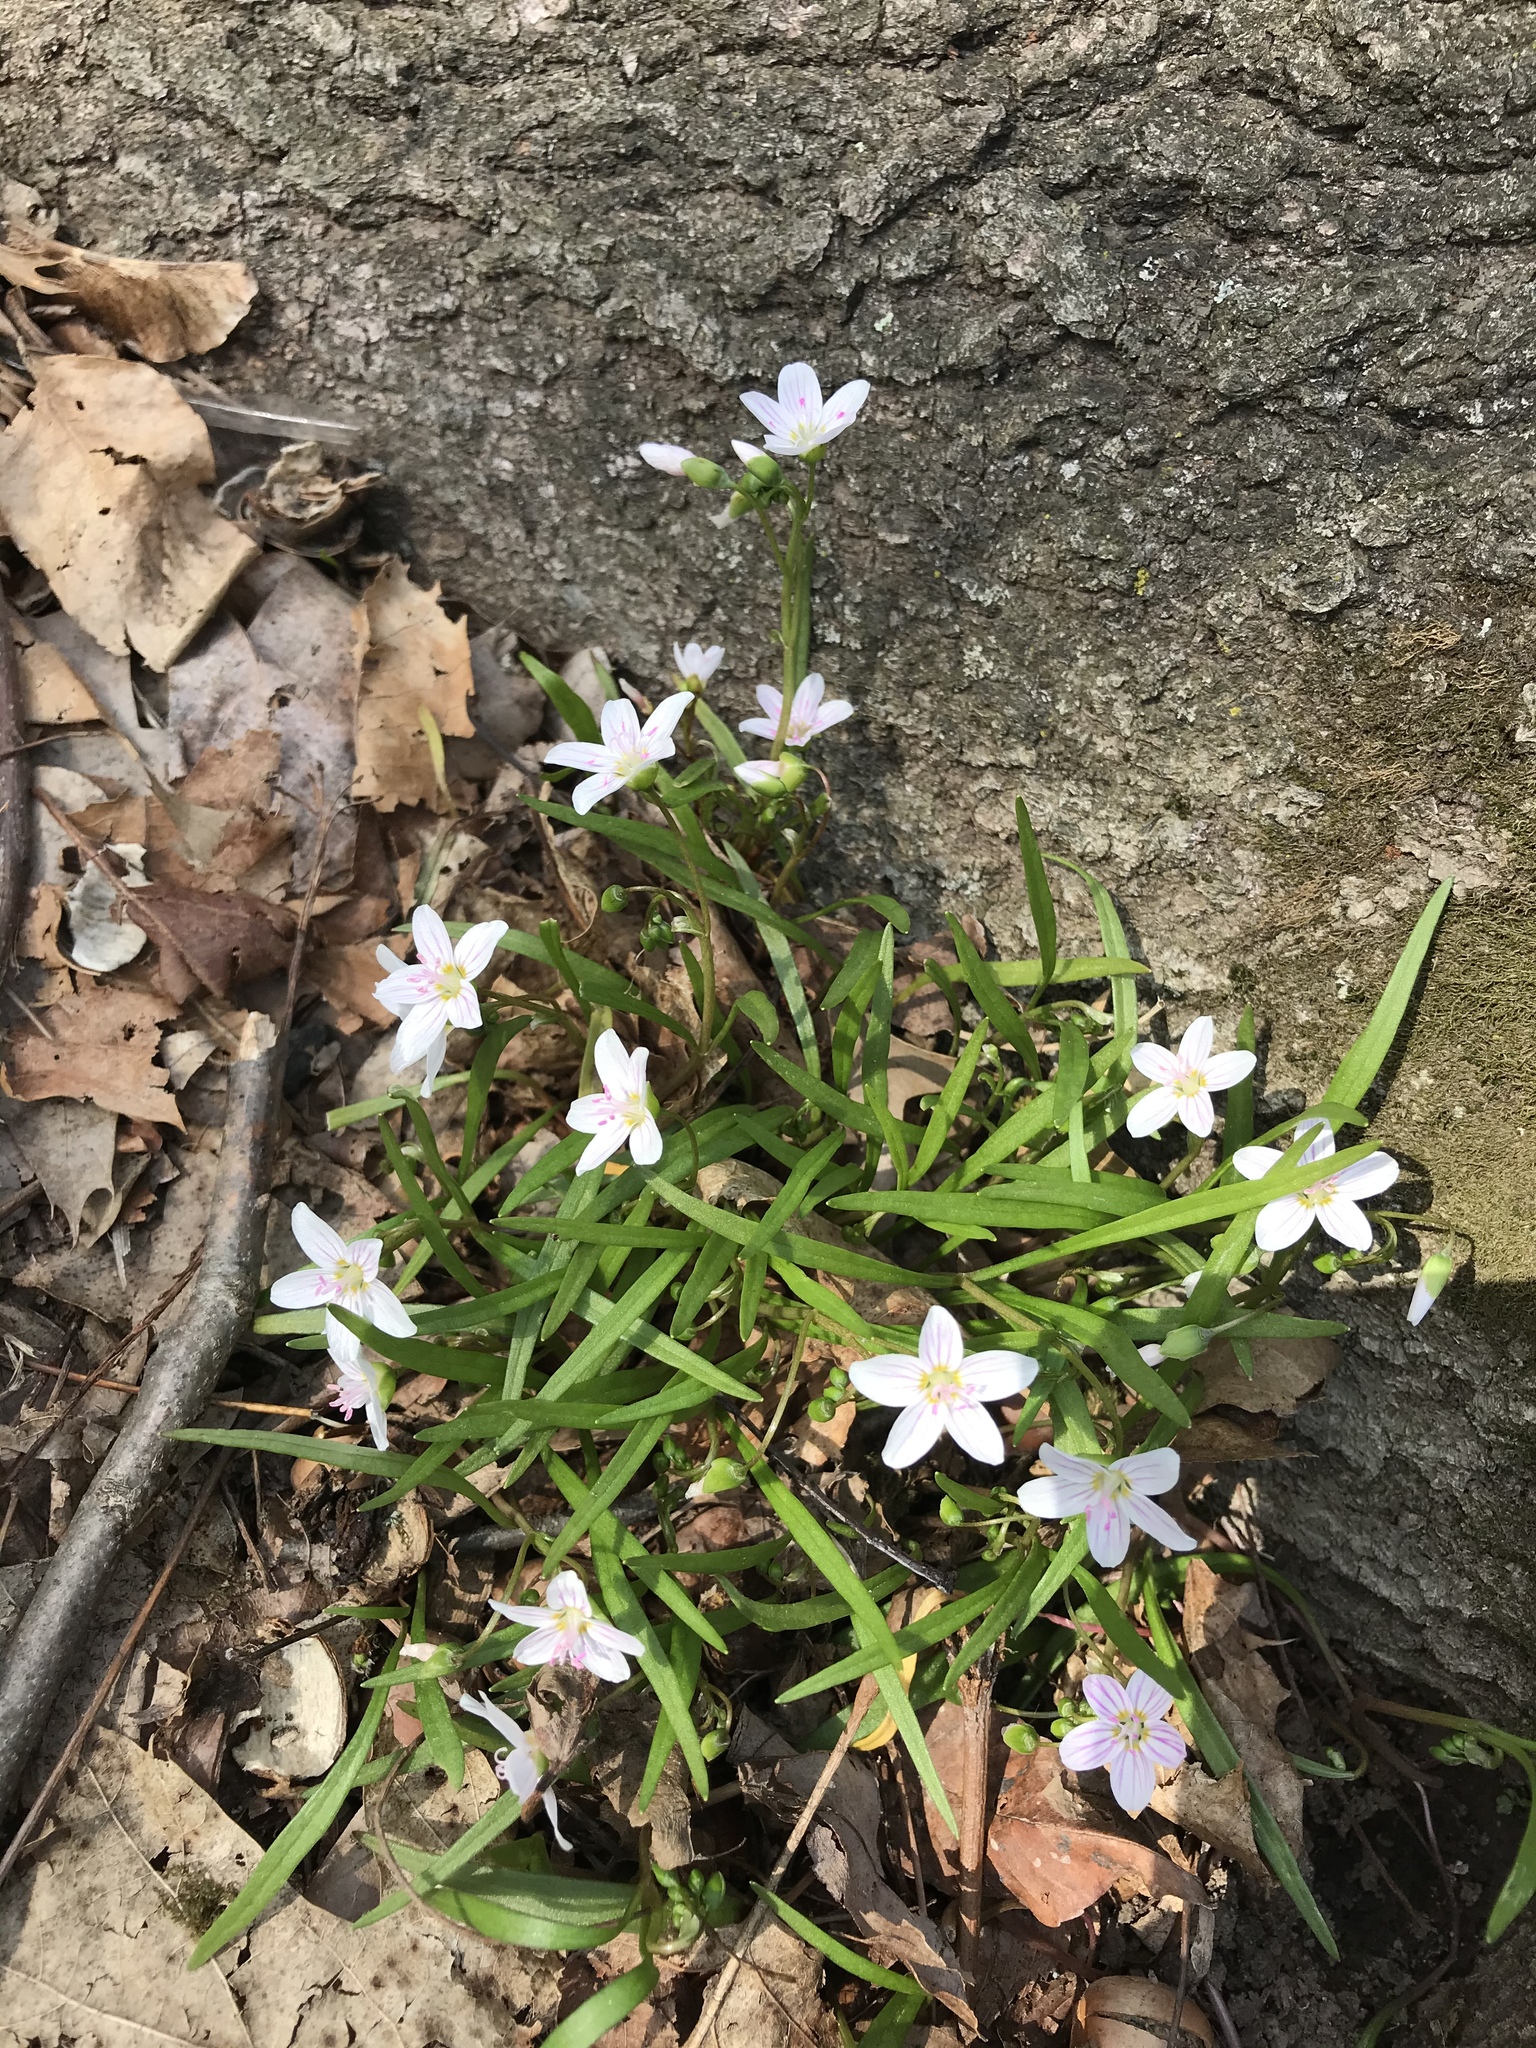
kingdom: Plantae
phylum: Tracheophyta
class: Magnoliopsida
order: Caryophyllales
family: Montiaceae
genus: Claytonia
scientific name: Claytonia virginica
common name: Virginia springbeauty
